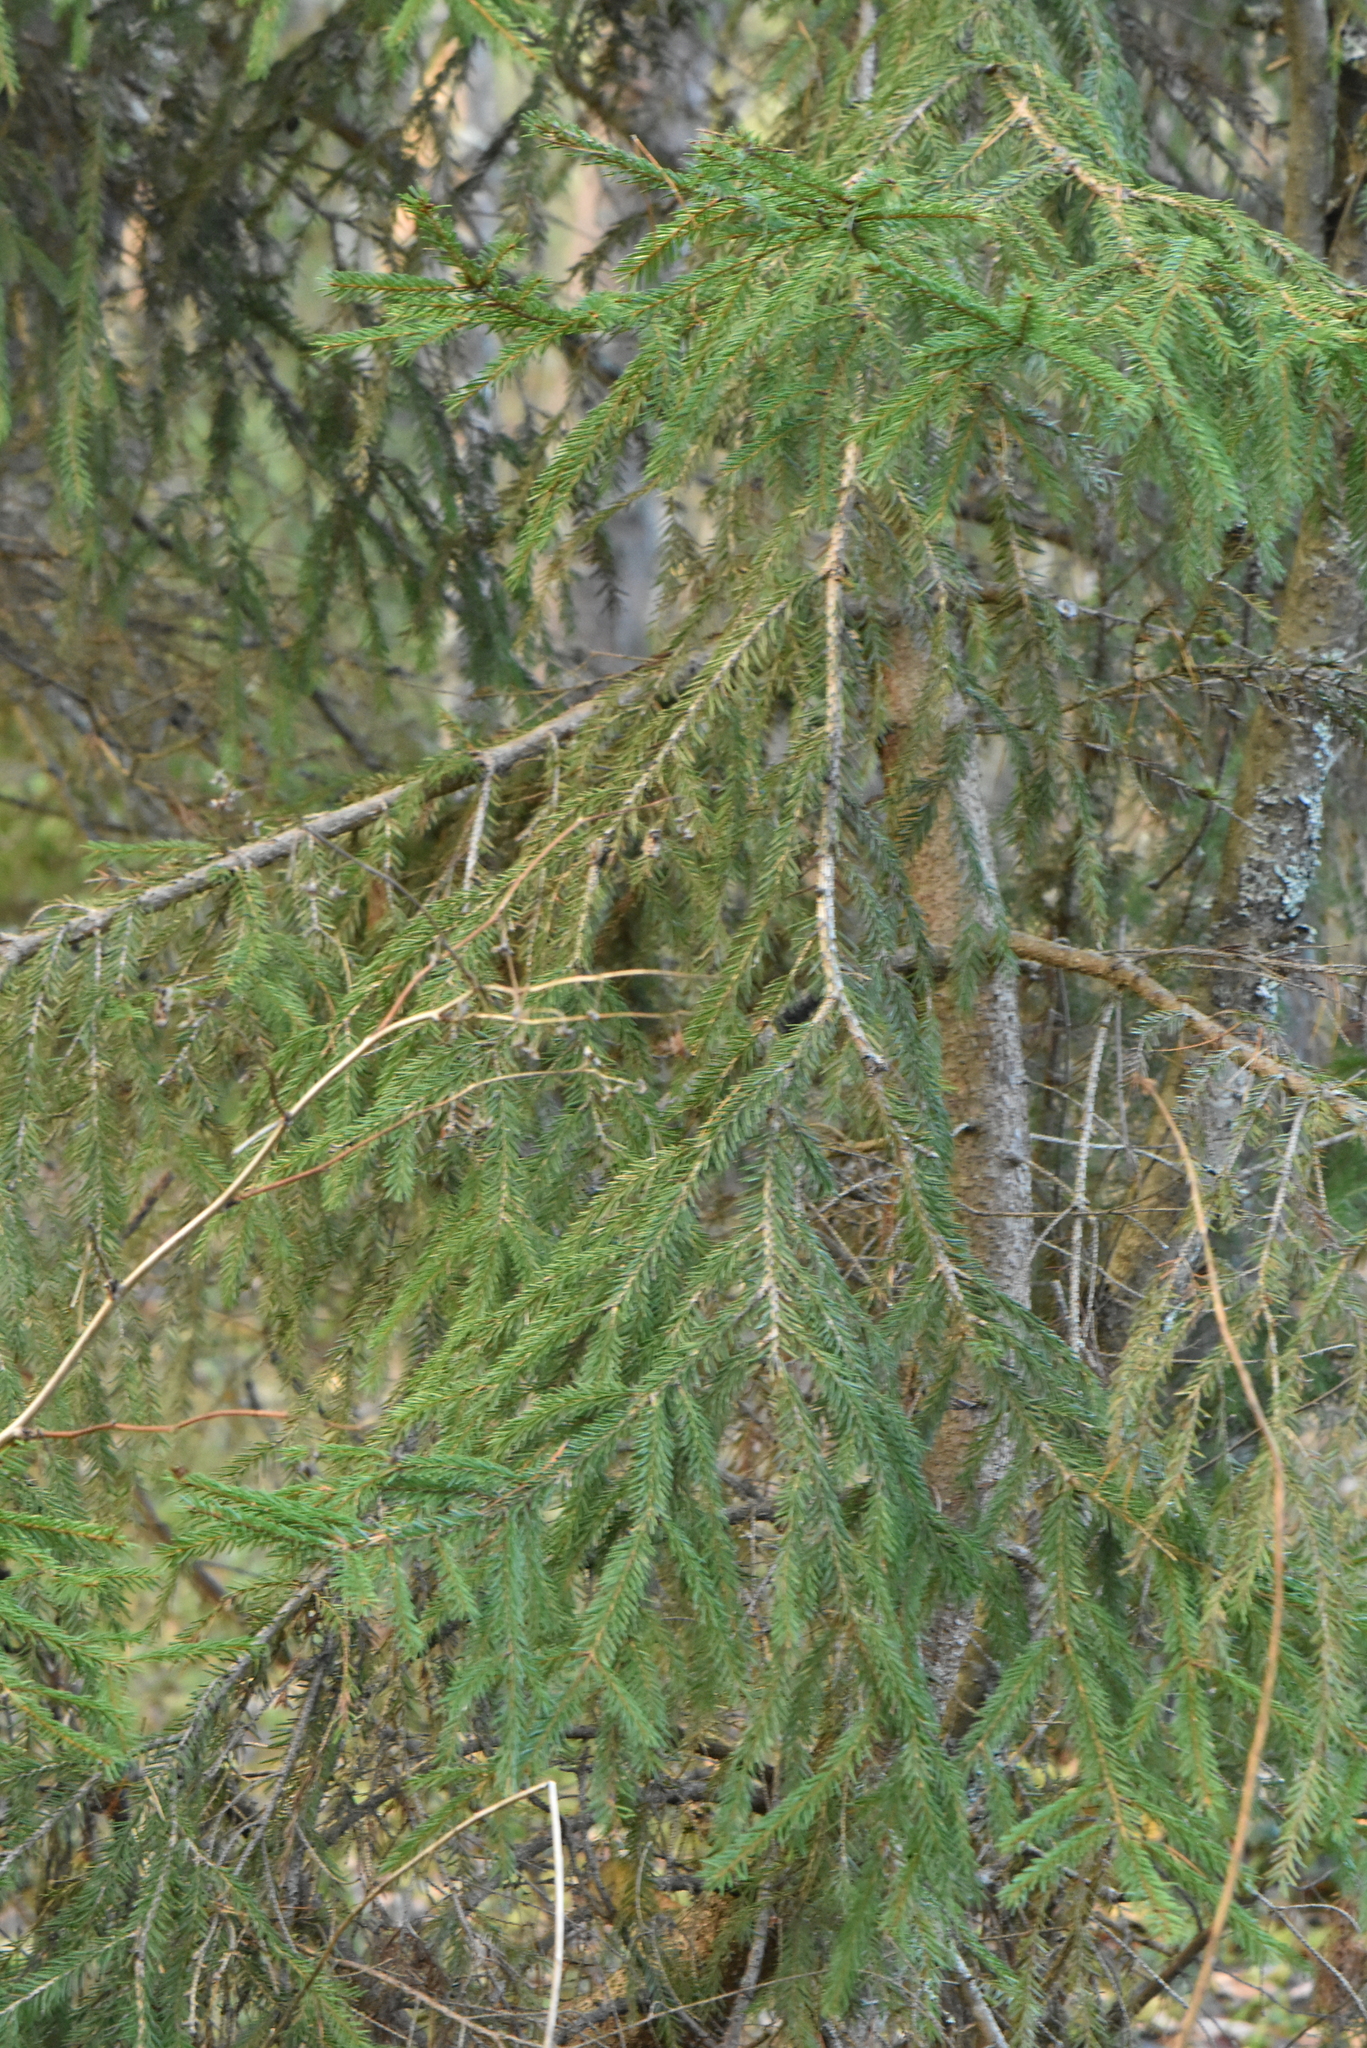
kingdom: Plantae
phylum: Tracheophyta
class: Pinopsida
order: Pinales
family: Pinaceae
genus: Picea
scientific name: Picea abies
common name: Norway spruce
